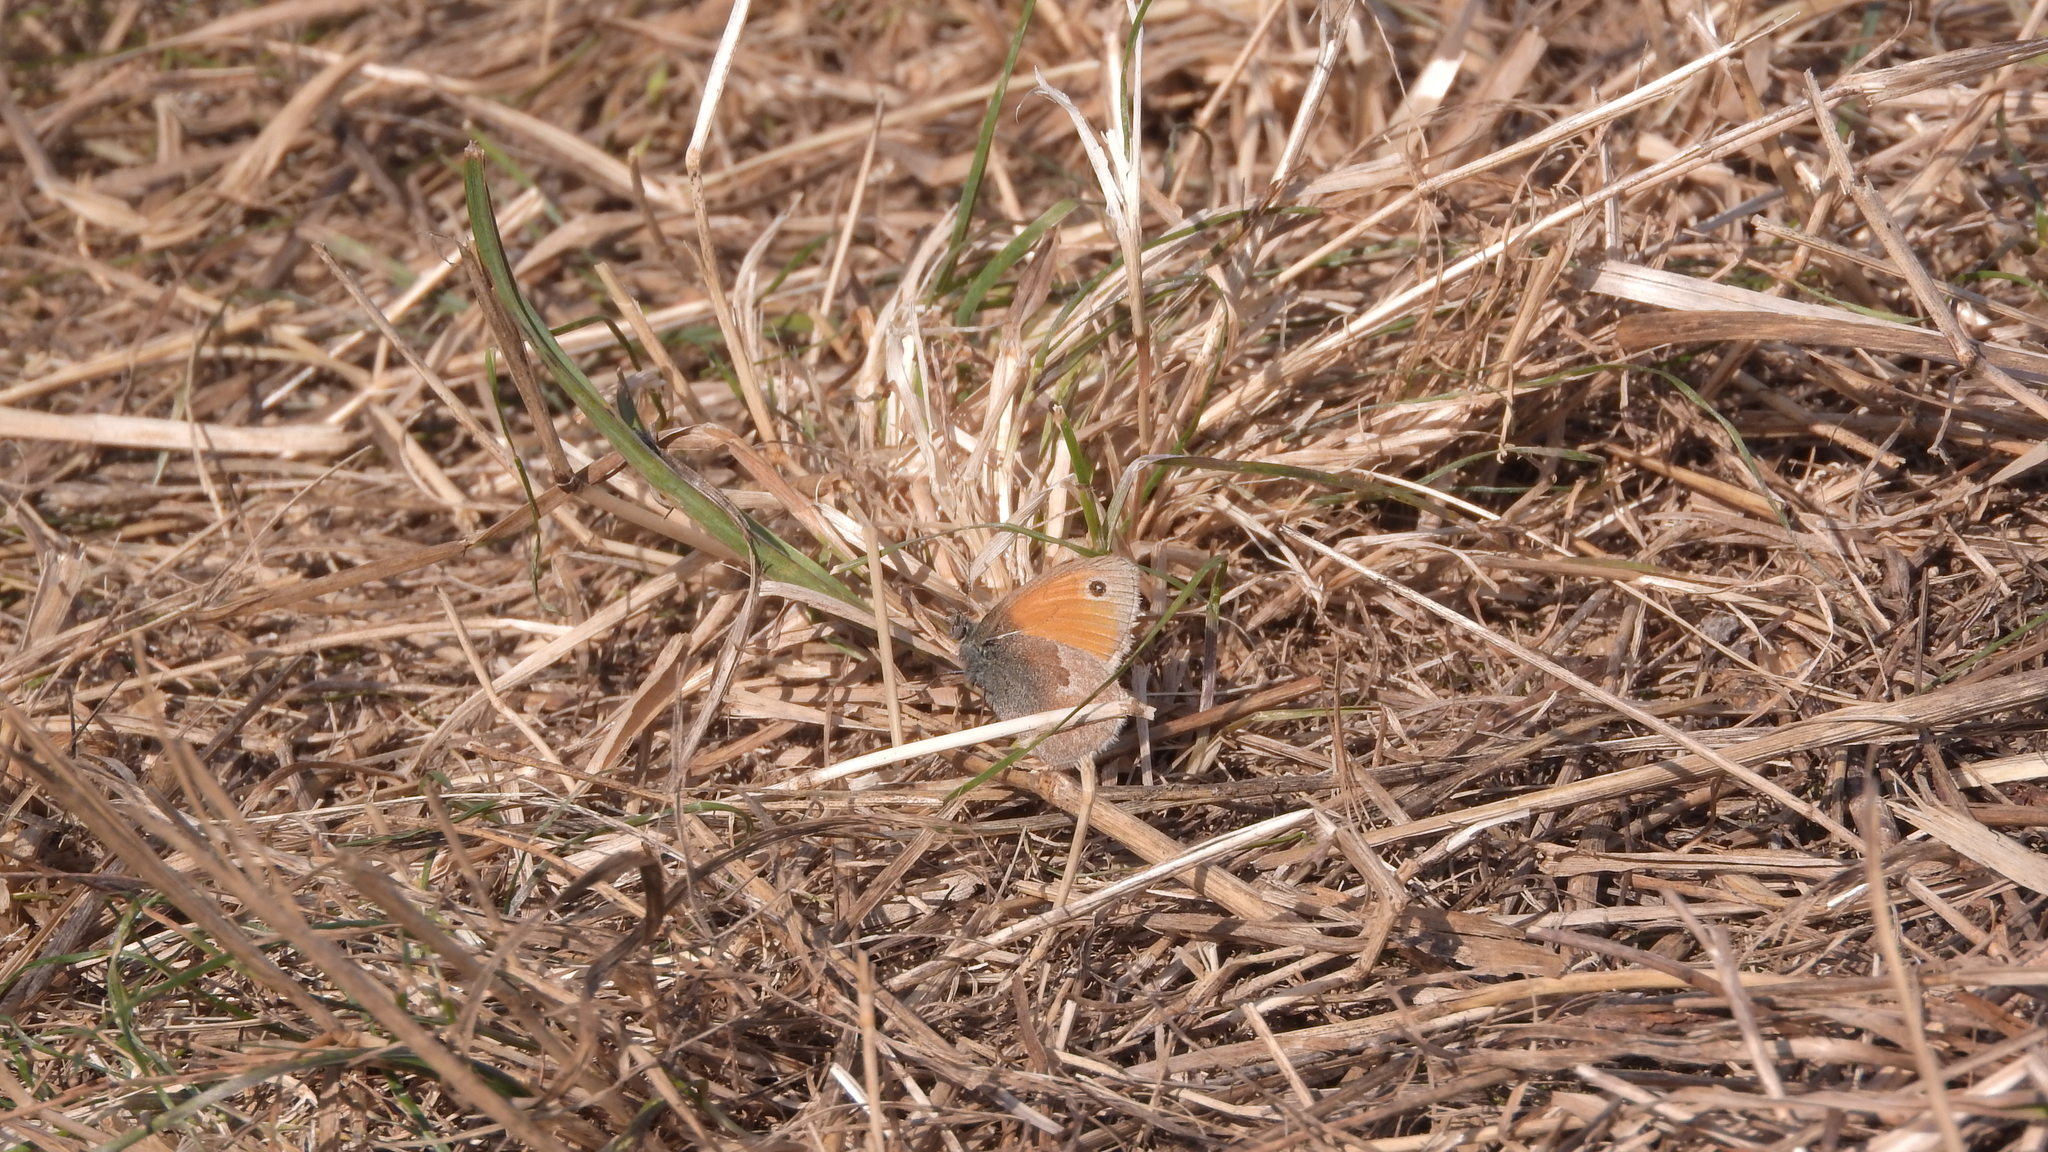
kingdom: Animalia
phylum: Arthropoda
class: Insecta
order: Lepidoptera
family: Nymphalidae
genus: Coenonympha
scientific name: Coenonympha pamphilus
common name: Small heath
